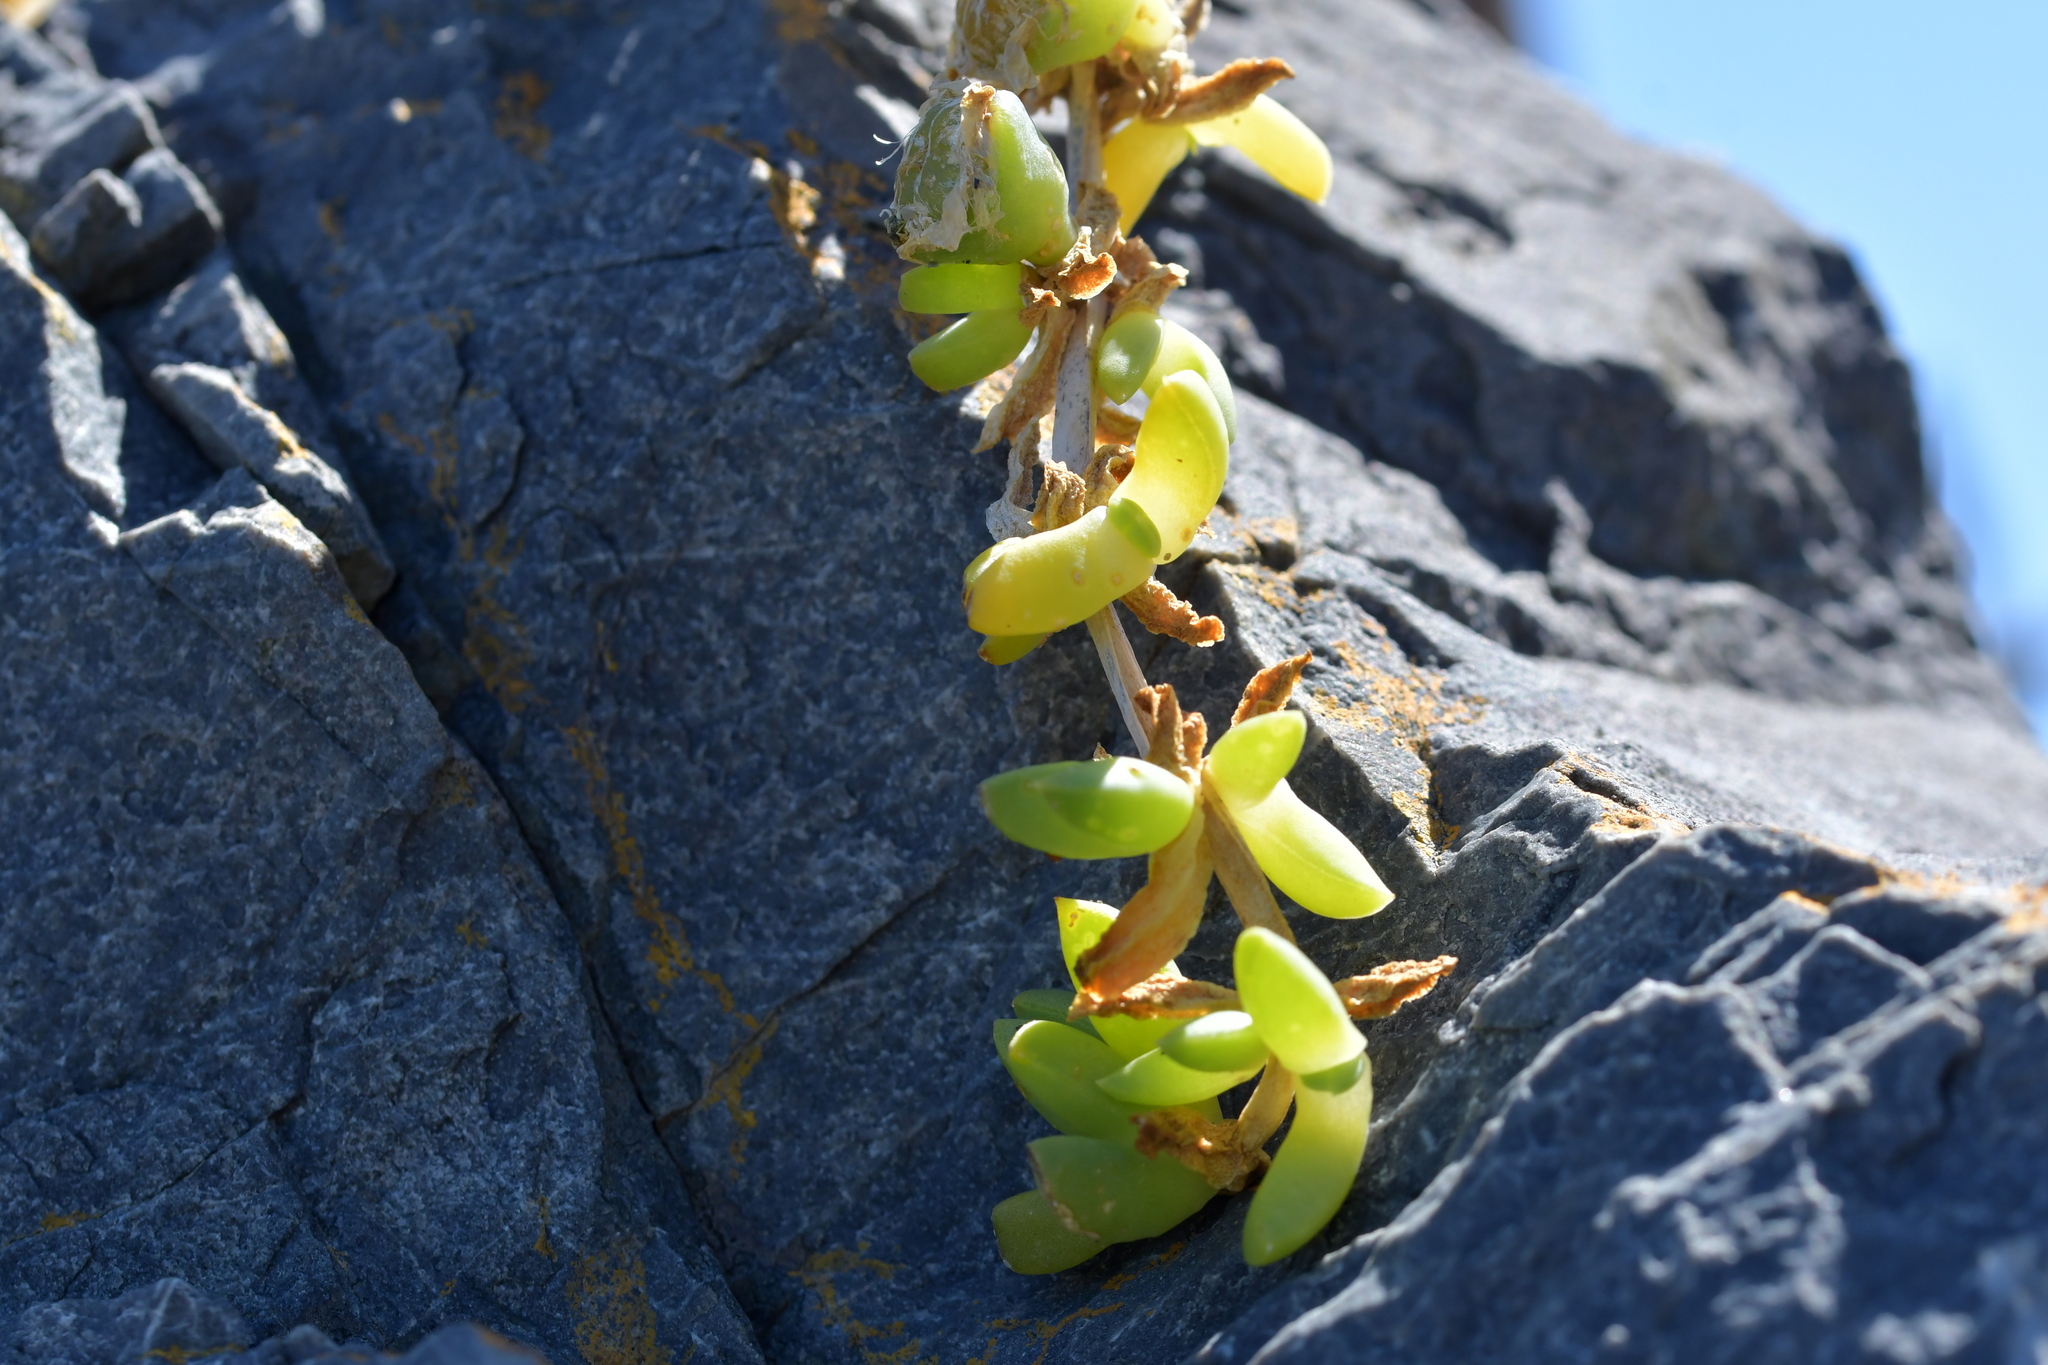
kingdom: Plantae
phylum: Tracheophyta
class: Magnoliopsida
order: Caryophyllales
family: Aizoaceae
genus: Disphyma
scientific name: Disphyma australe
